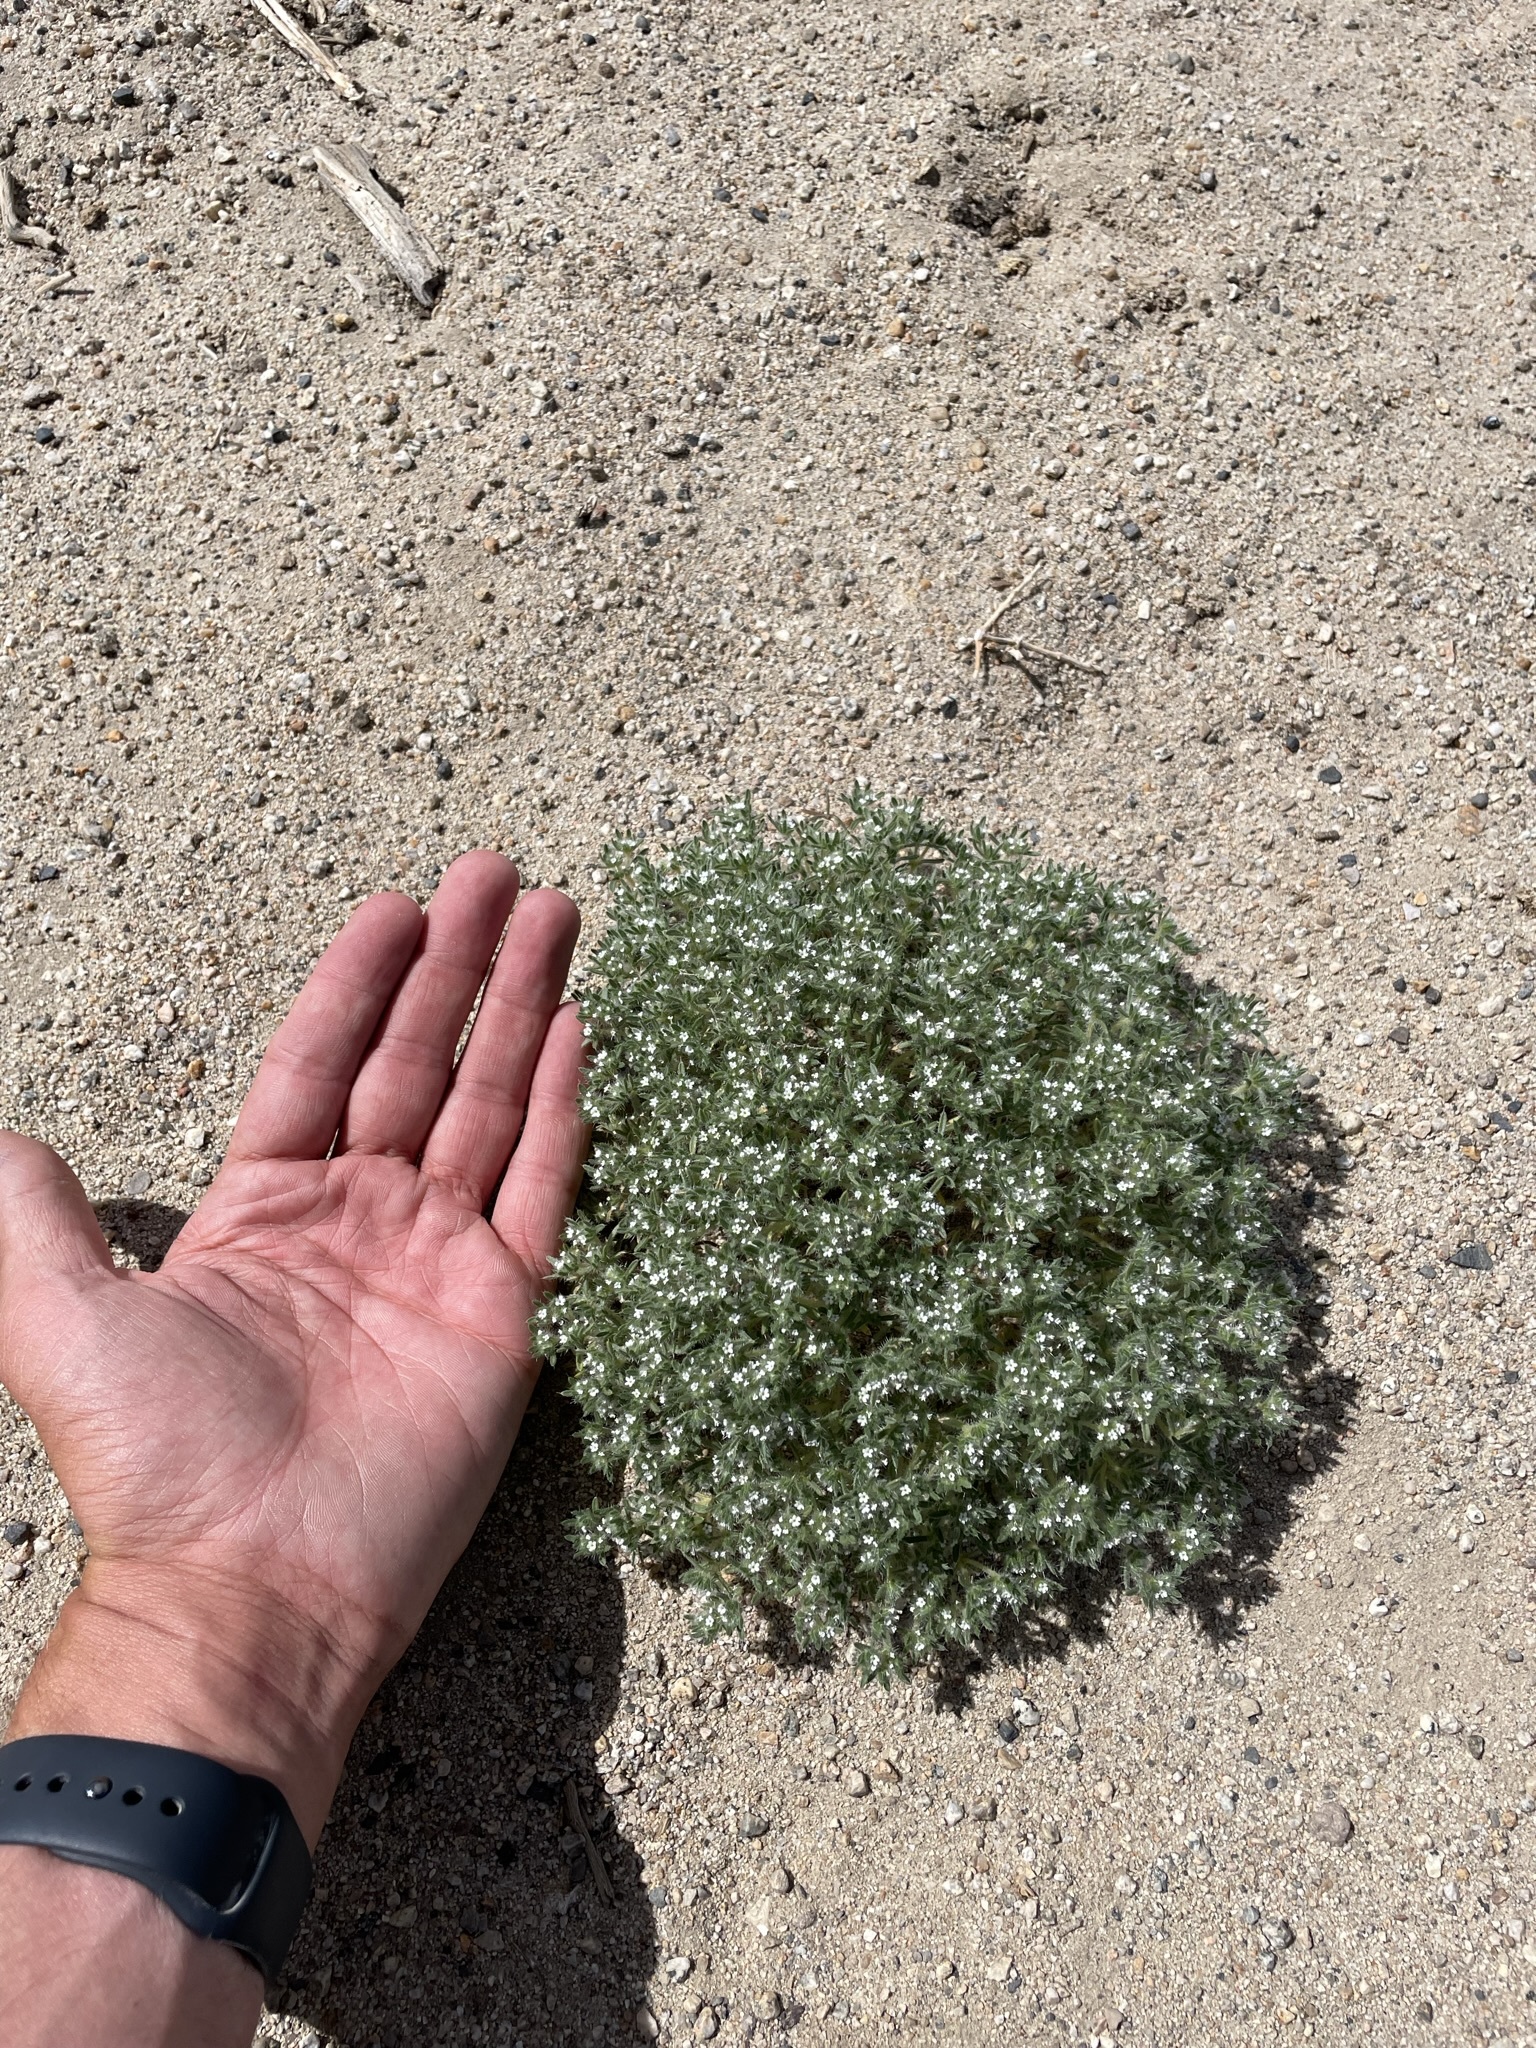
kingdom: Plantae
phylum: Tracheophyta
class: Magnoliopsida
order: Boraginales
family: Boraginaceae
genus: Greeneocharis
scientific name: Greeneocharis circumscissa
